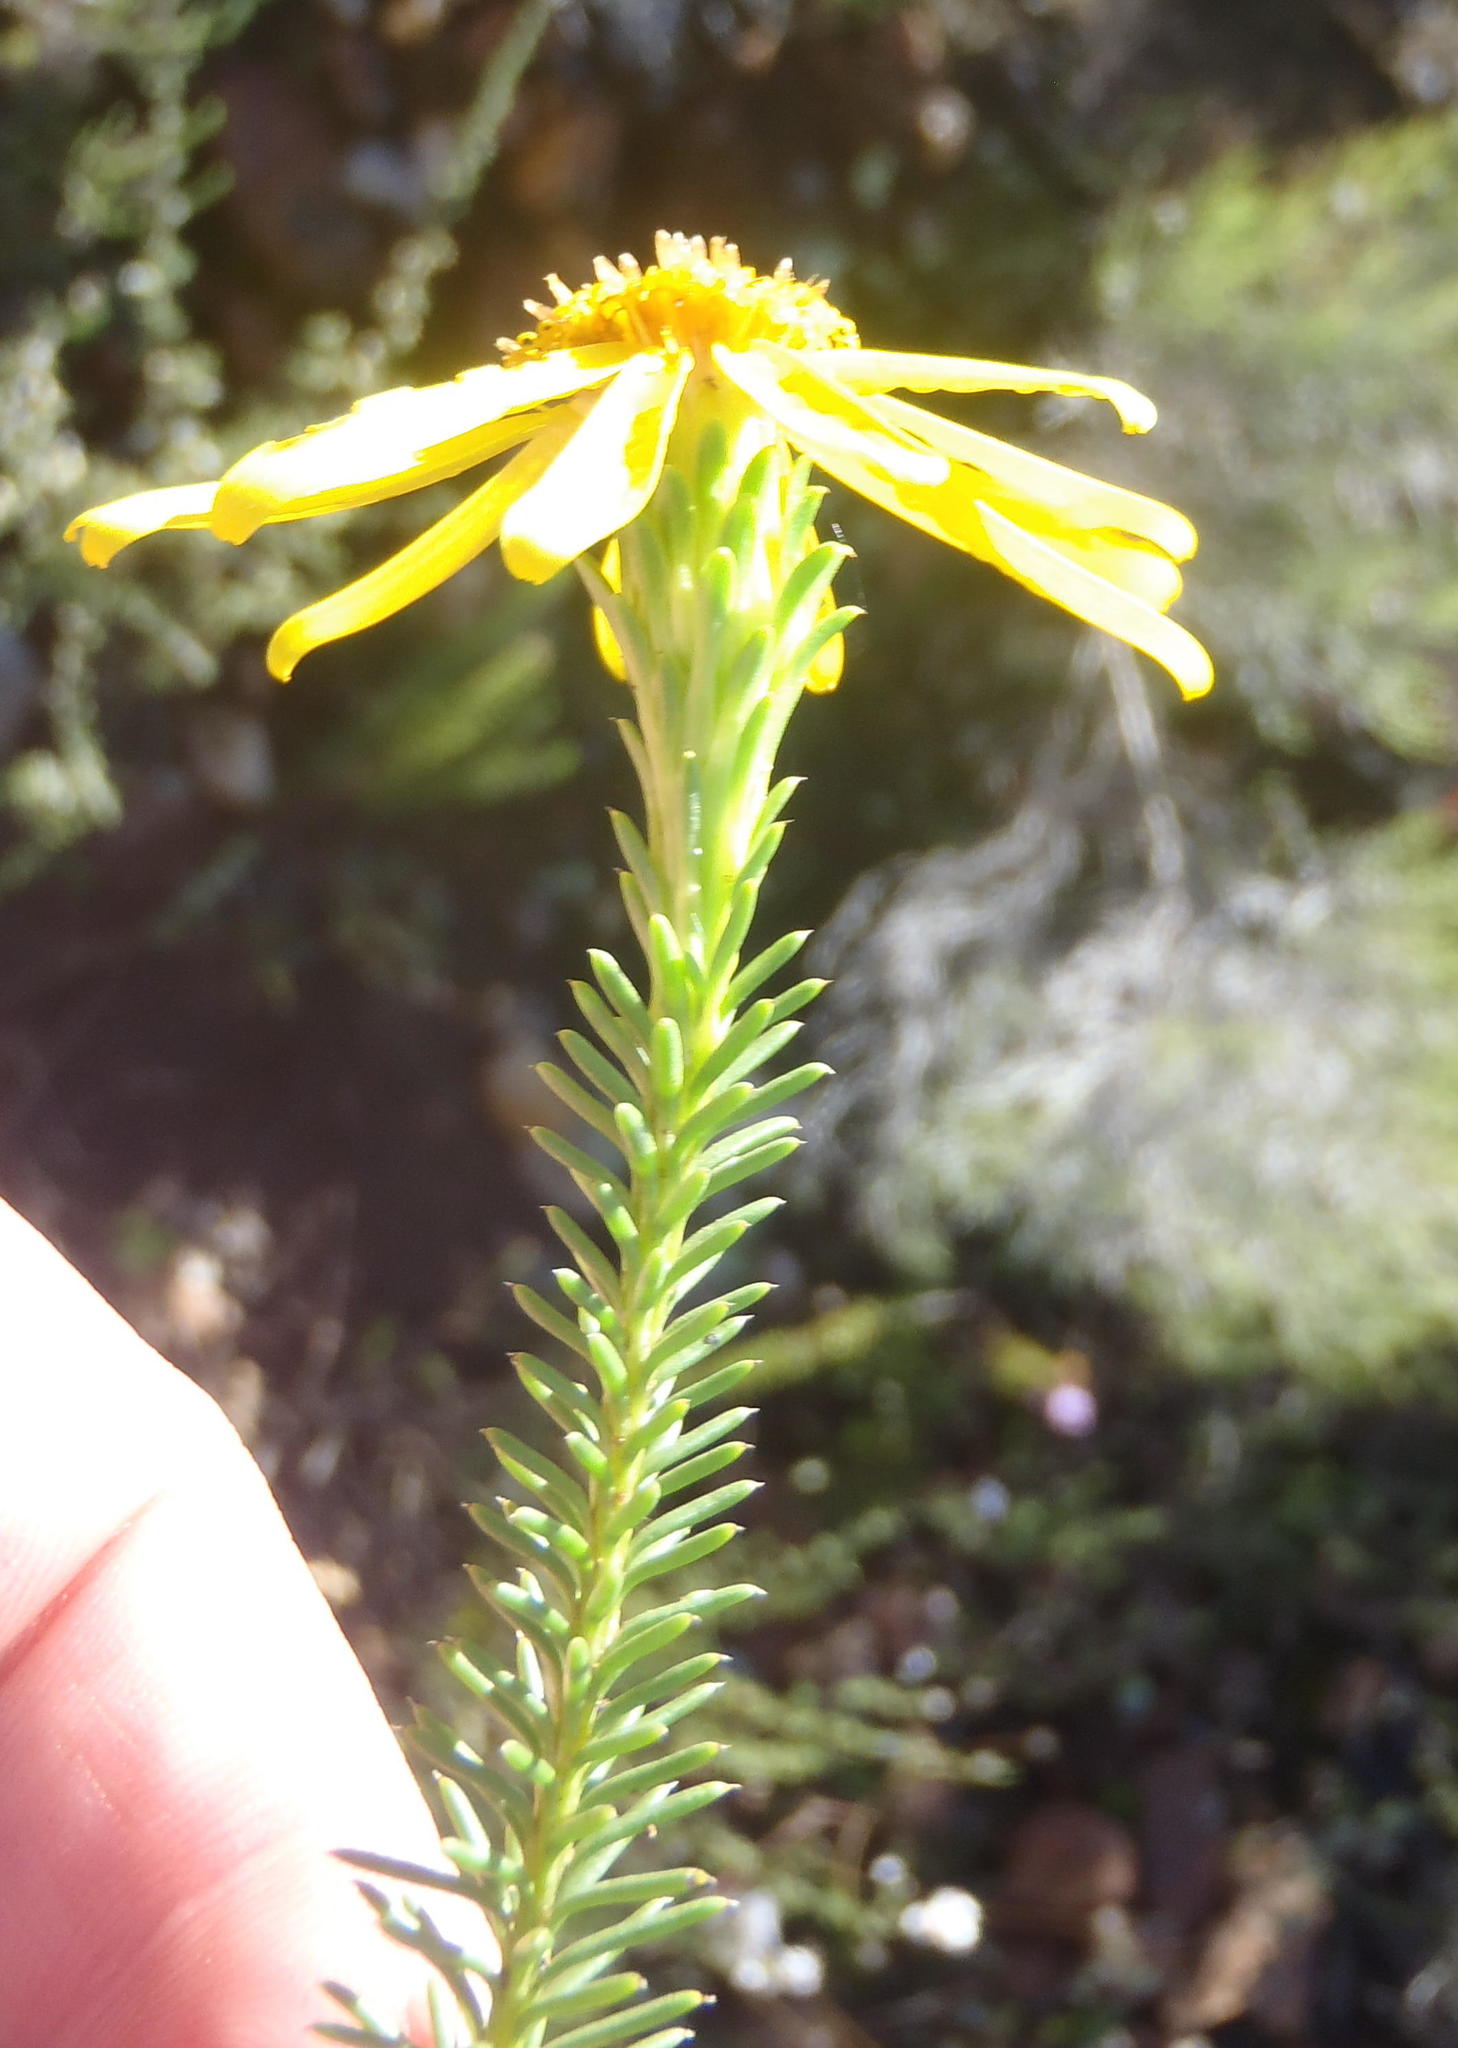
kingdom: Plantae
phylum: Tracheophyta
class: Magnoliopsida
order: Asterales
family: Asteraceae
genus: Senecio
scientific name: Senecio pinifolius
